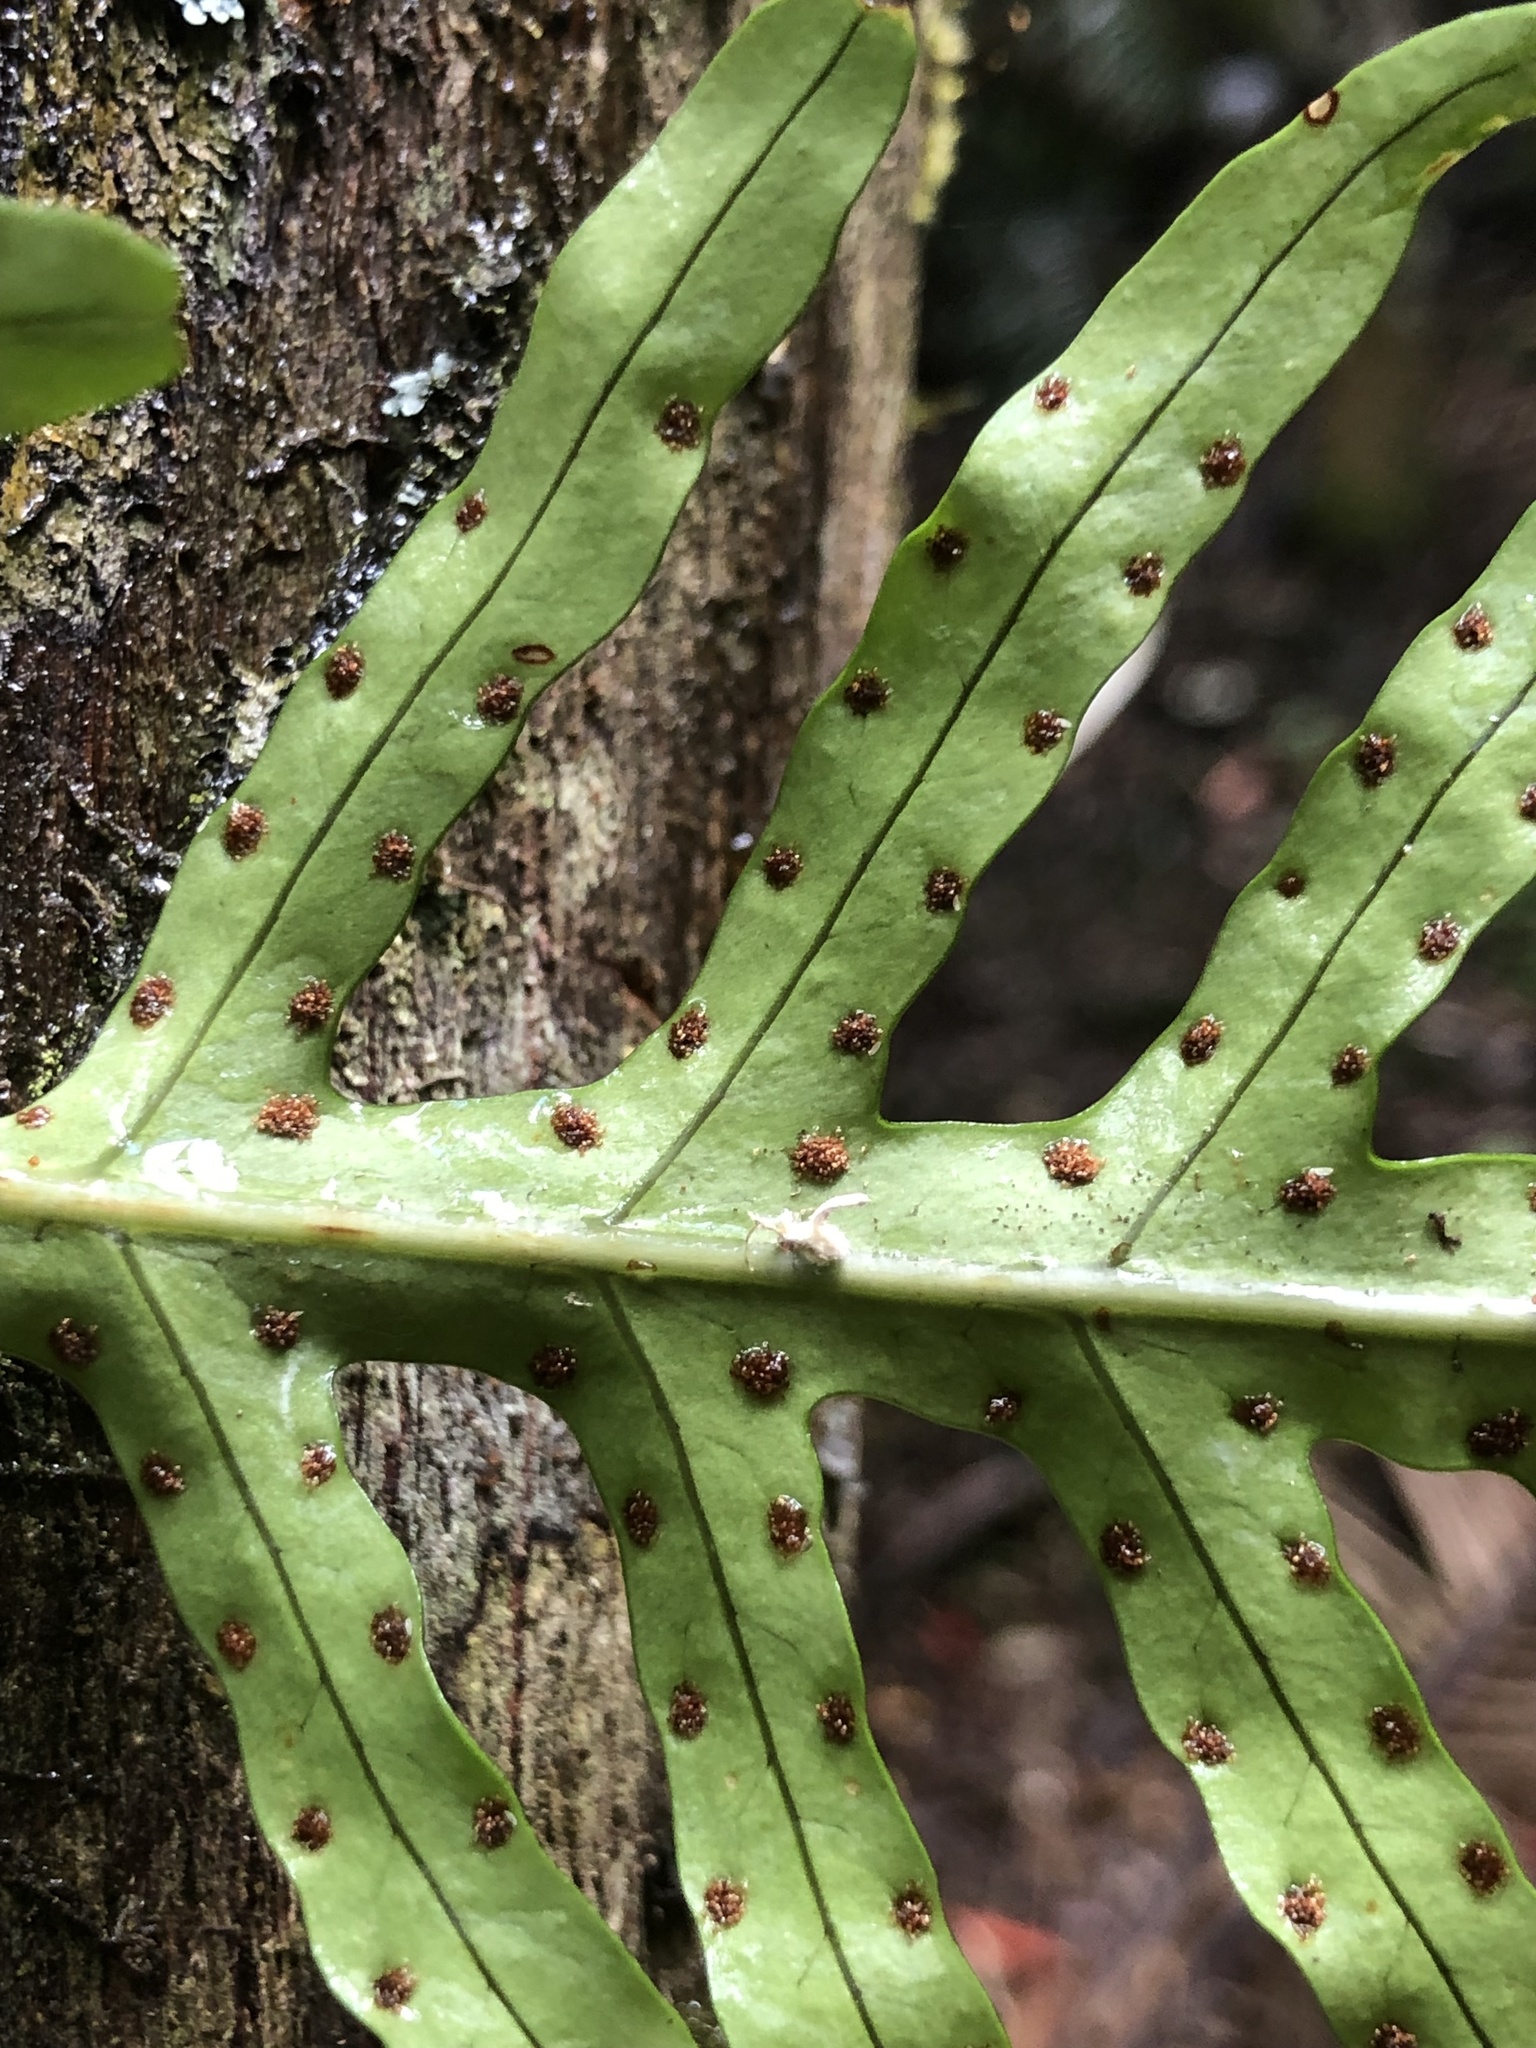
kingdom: Plantae
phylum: Tracheophyta
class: Polypodiopsida
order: Polypodiales
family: Polypodiaceae
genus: Lecanopteris
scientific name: Lecanopteris scandens
